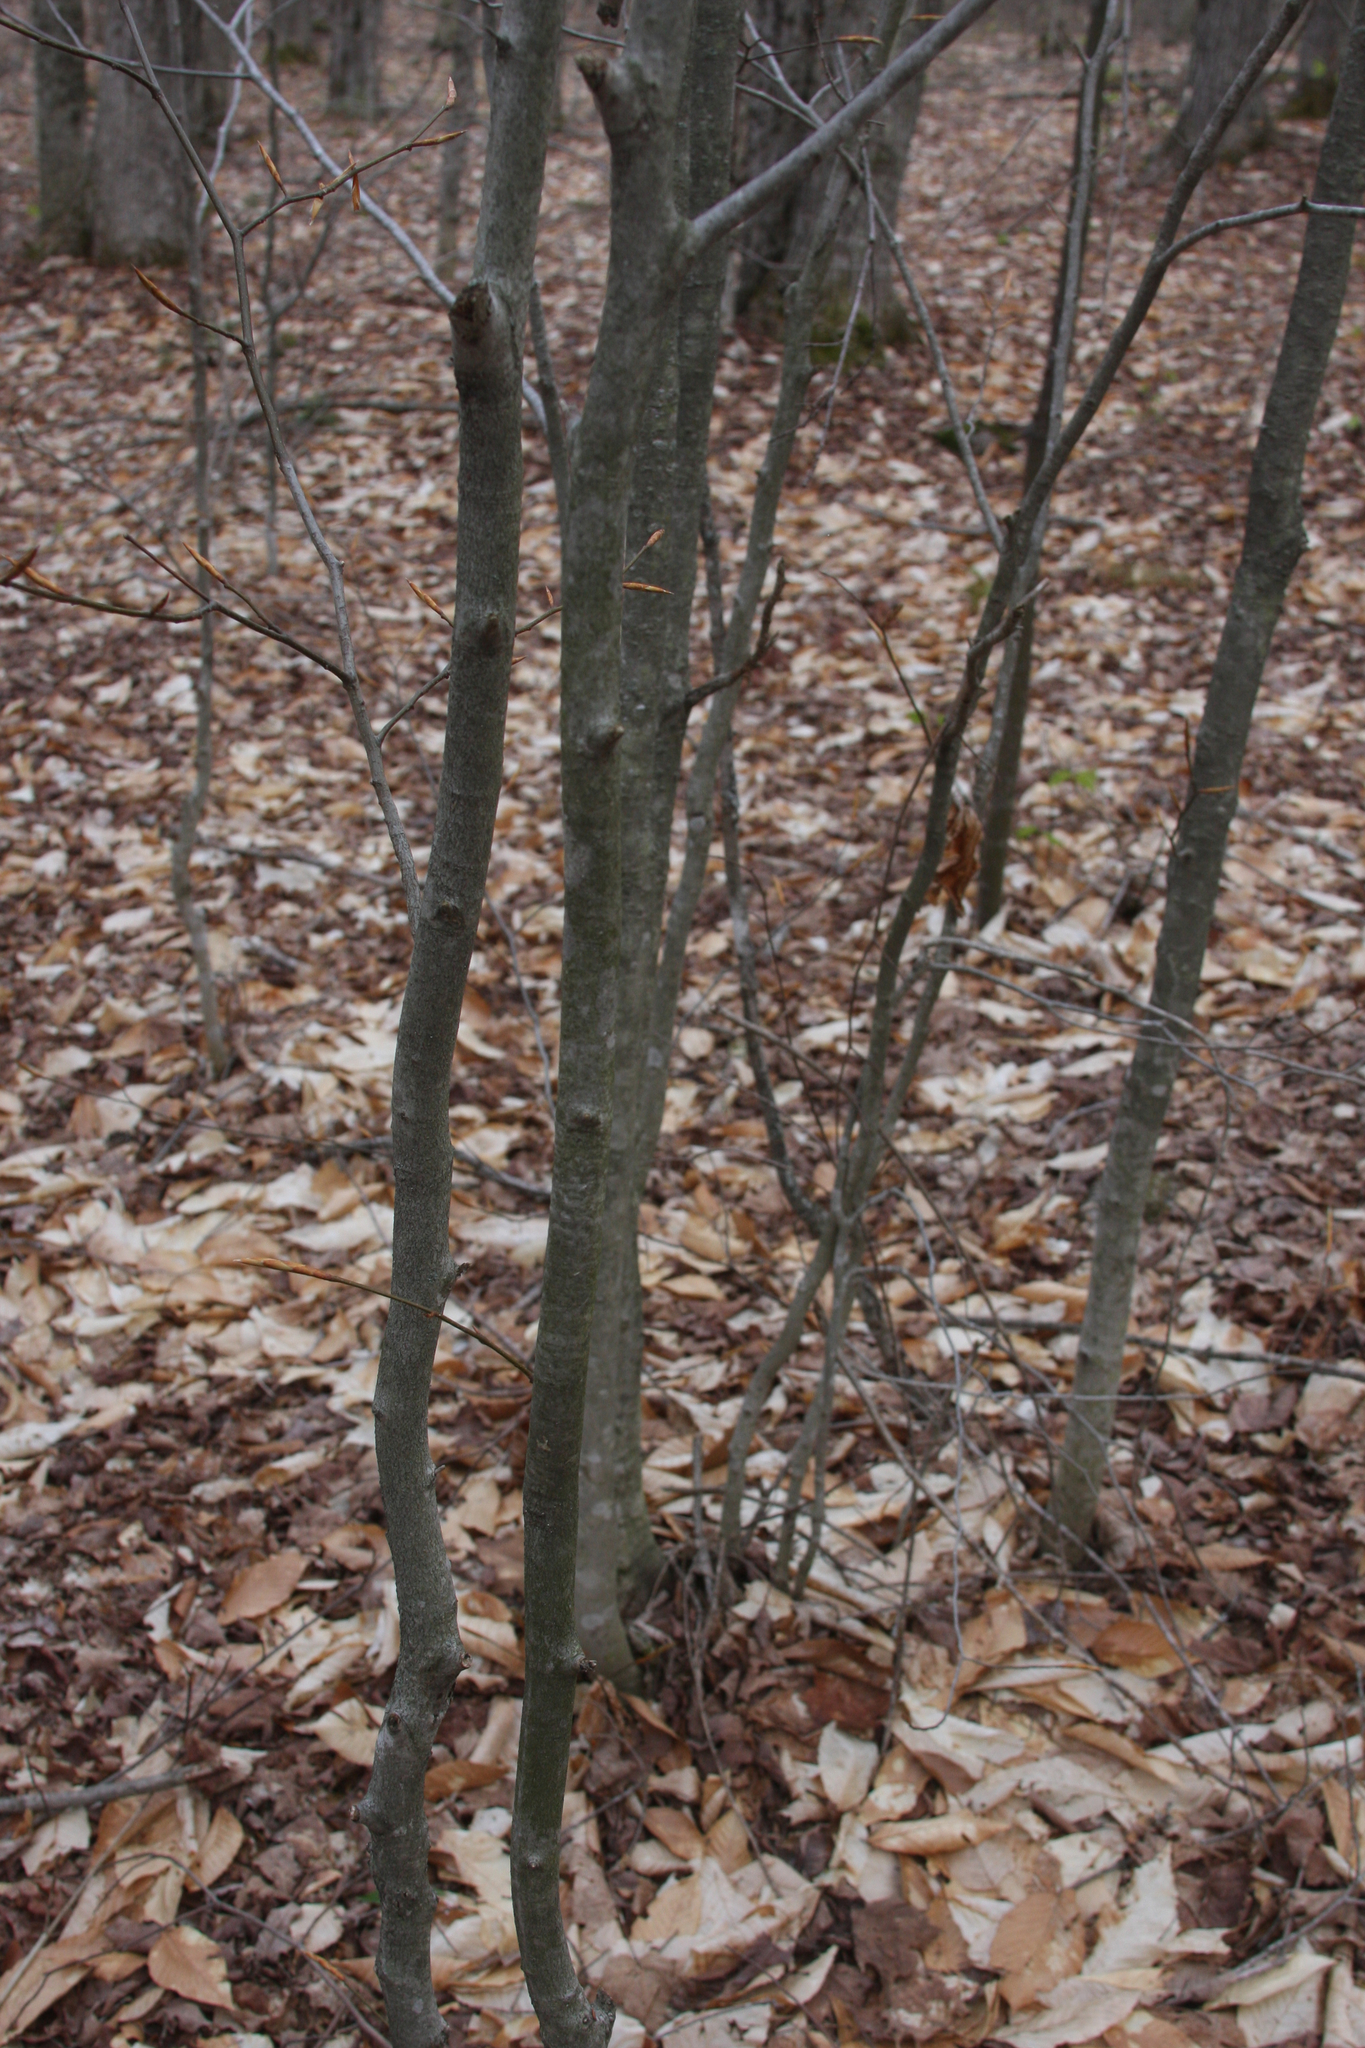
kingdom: Plantae
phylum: Tracheophyta
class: Magnoliopsida
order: Fagales
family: Fagaceae
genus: Fagus
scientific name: Fagus grandifolia
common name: American beech
